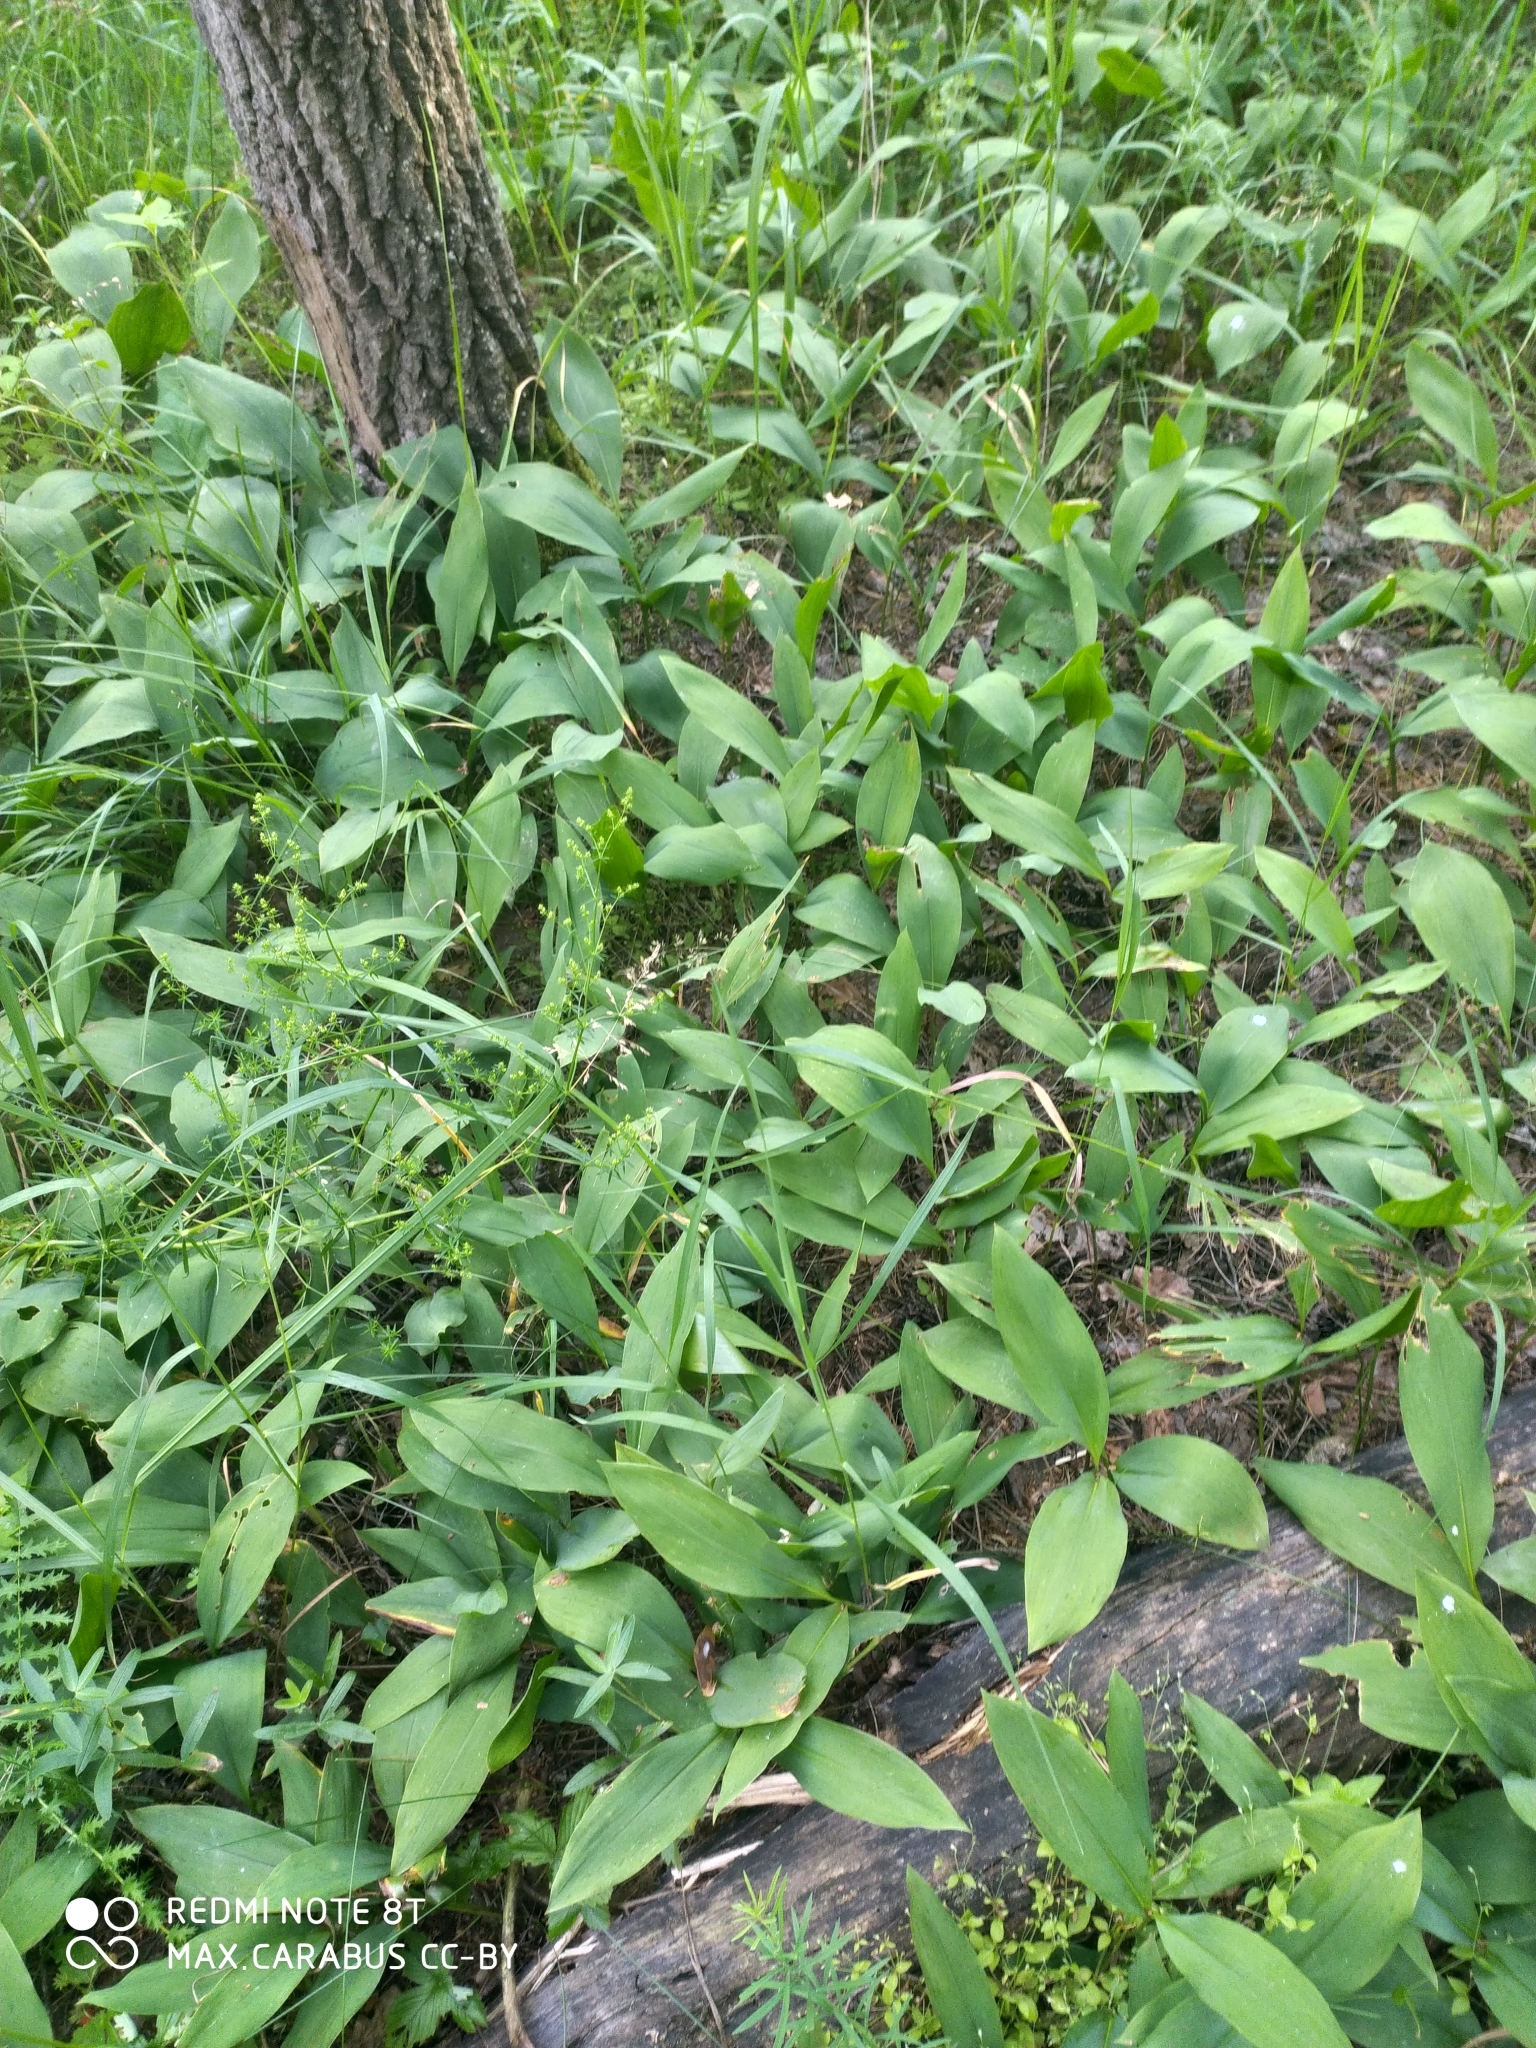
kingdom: Plantae
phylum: Tracheophyta
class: Liliopsida
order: Asparagales
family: Asparagaceae
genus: Convallaria
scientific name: Convallaria majalis
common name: Lily-of-the-valley
